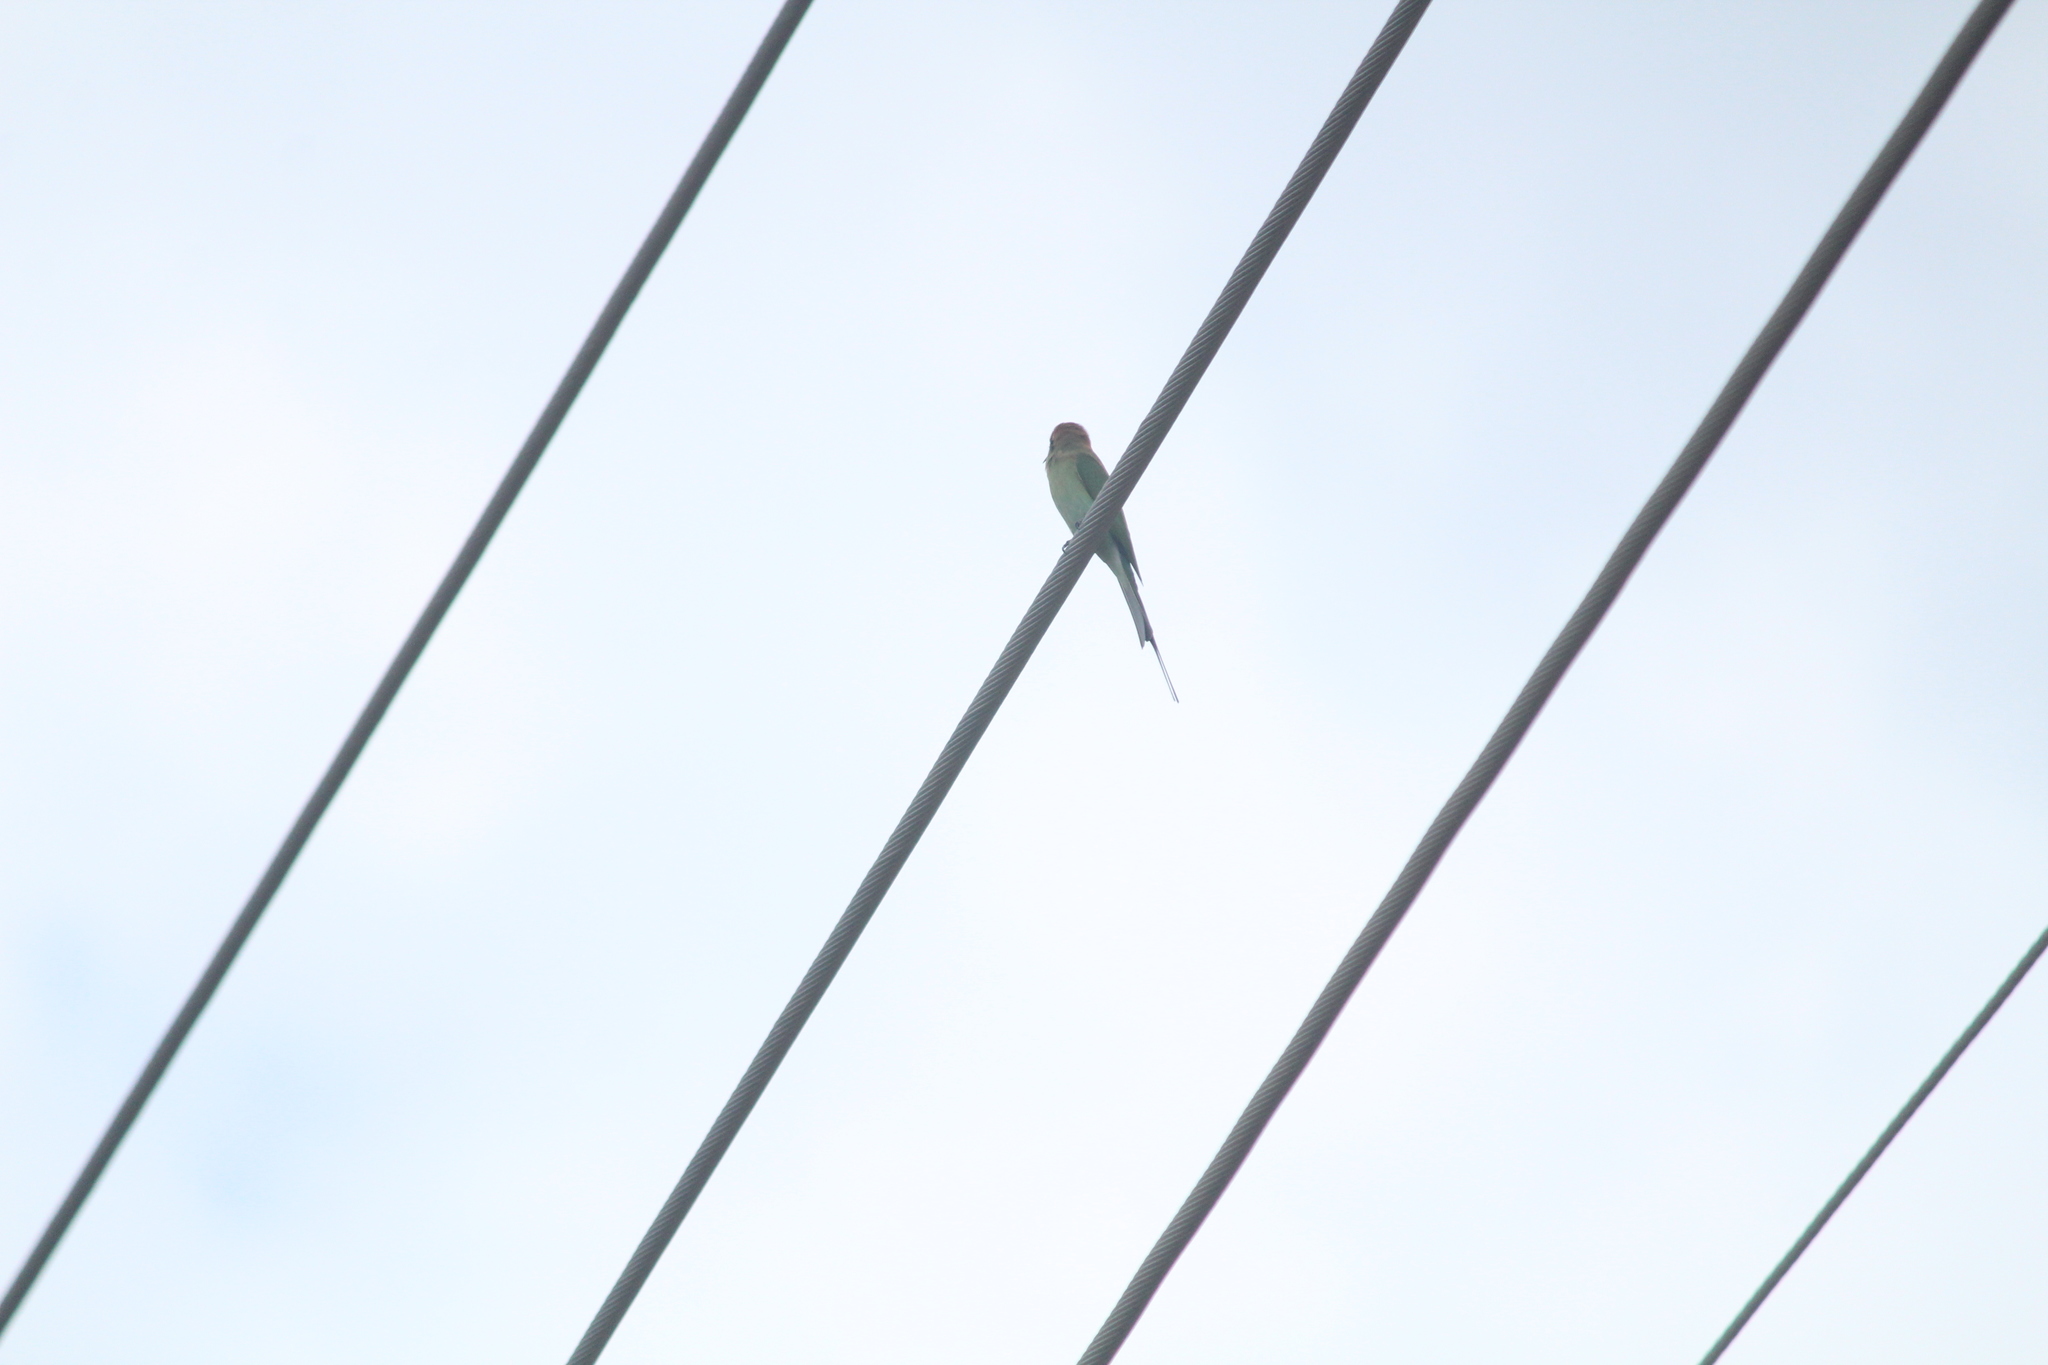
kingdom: Animalia
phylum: Chordata
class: Aves
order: Coraciiformes
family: Meropidae
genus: Merops
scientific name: Merops orientalis
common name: Green bee-eater
